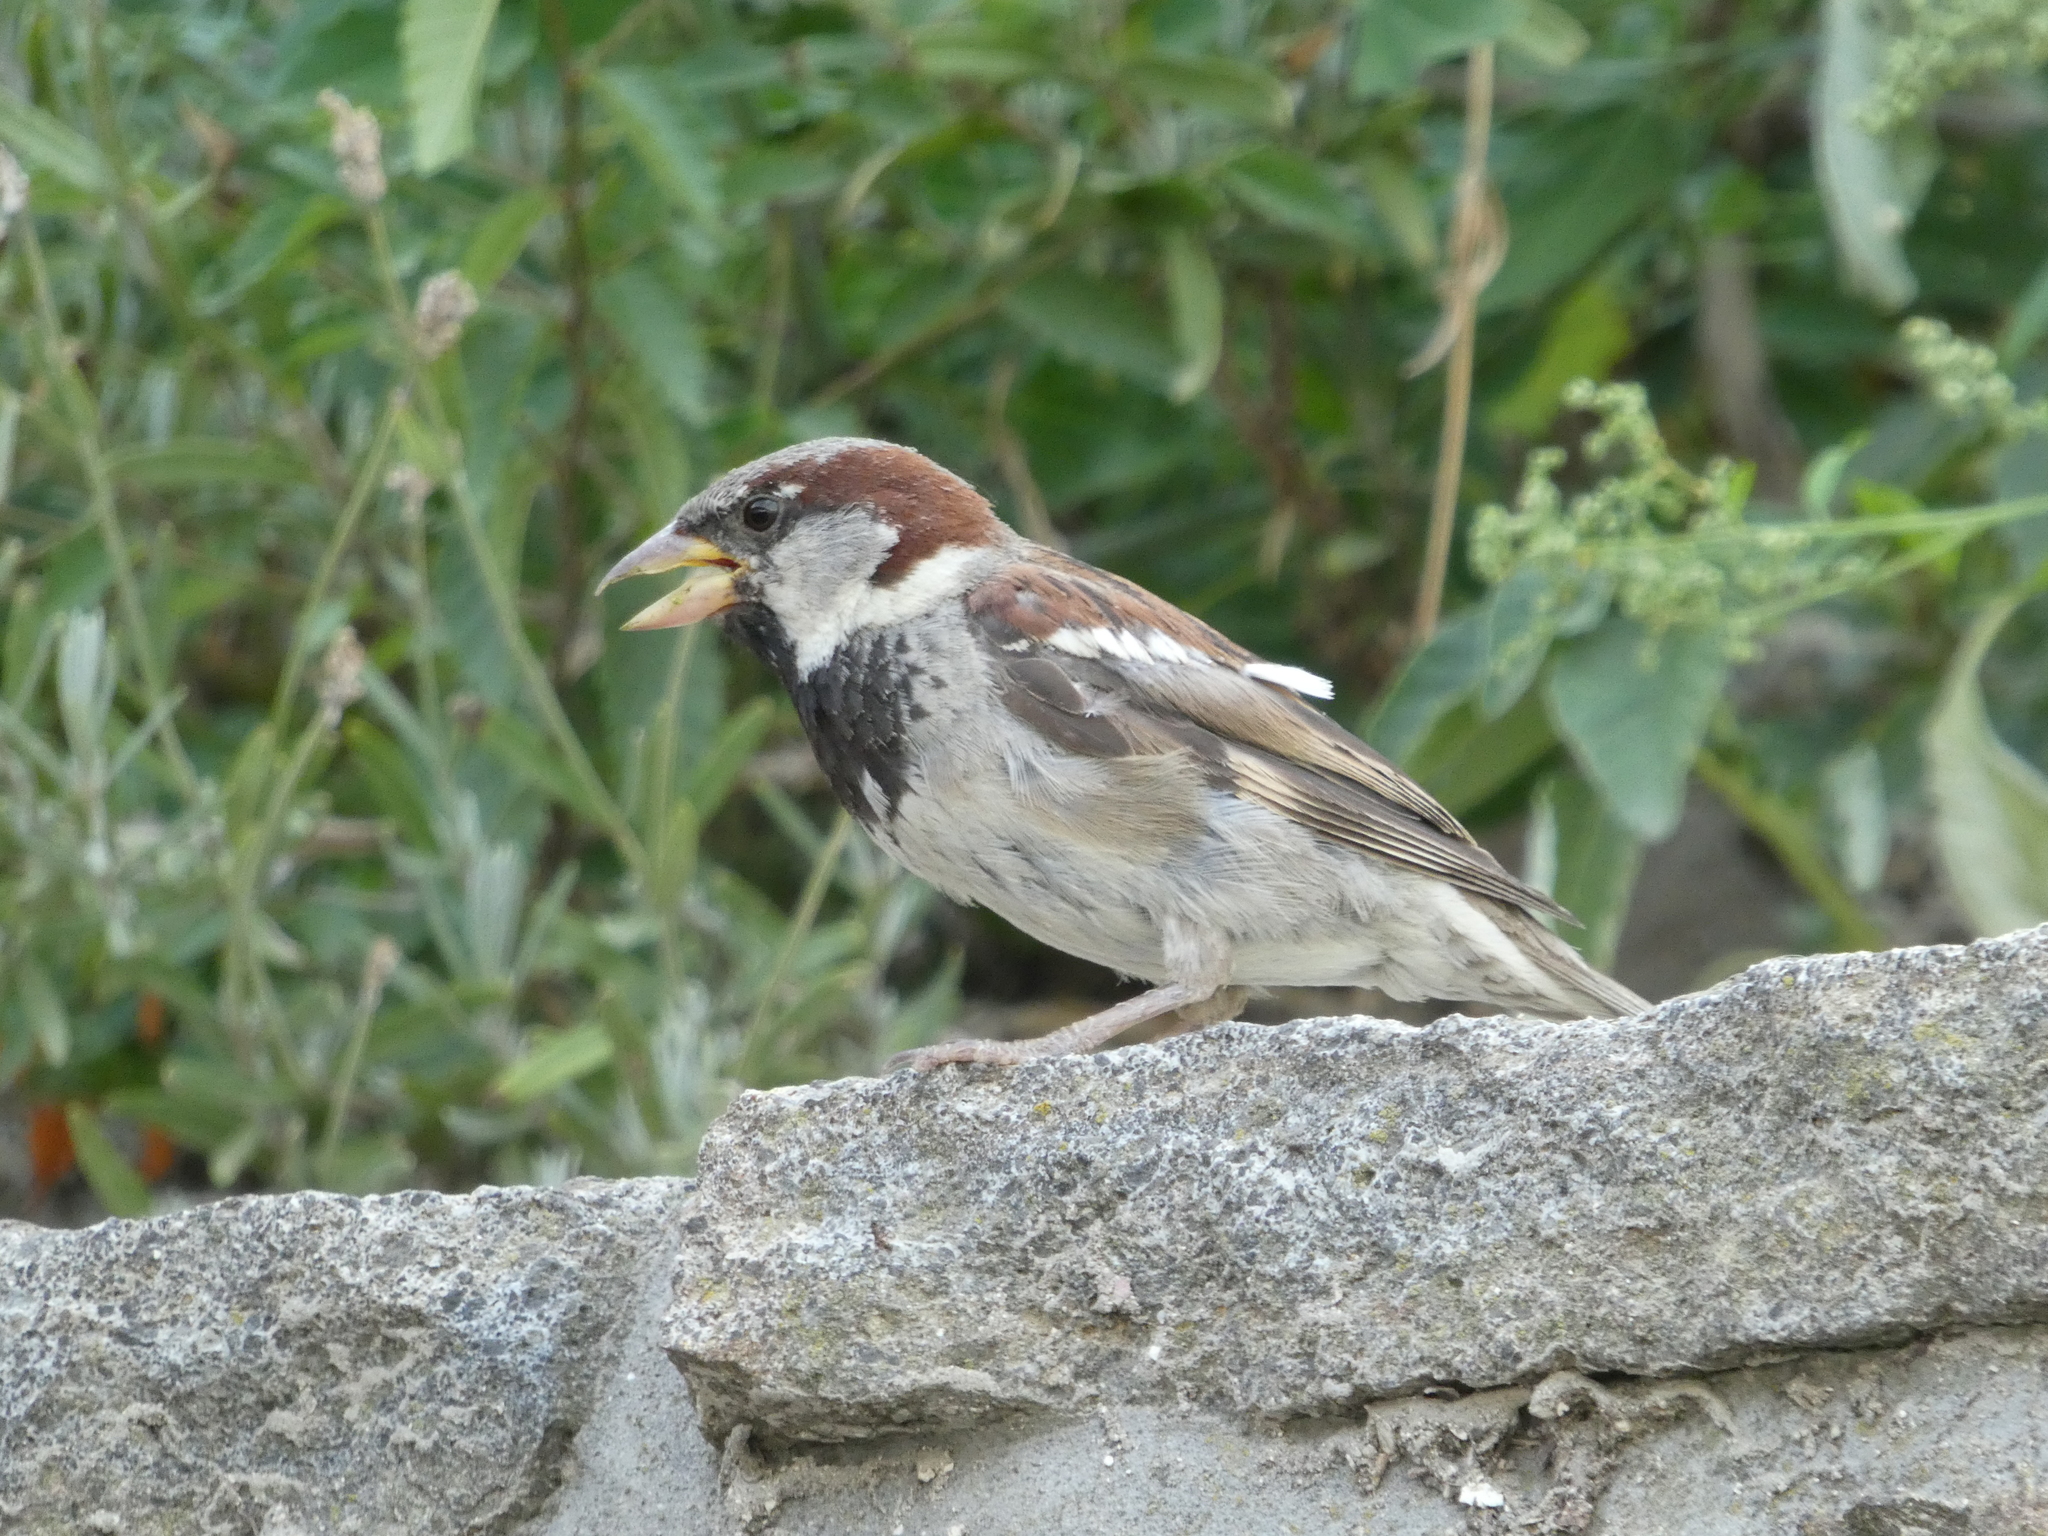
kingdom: Animalia
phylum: Chordata
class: Aves
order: Passeriformes
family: Passeridae
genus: Passer
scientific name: Passer domesticus
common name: House sparrow
